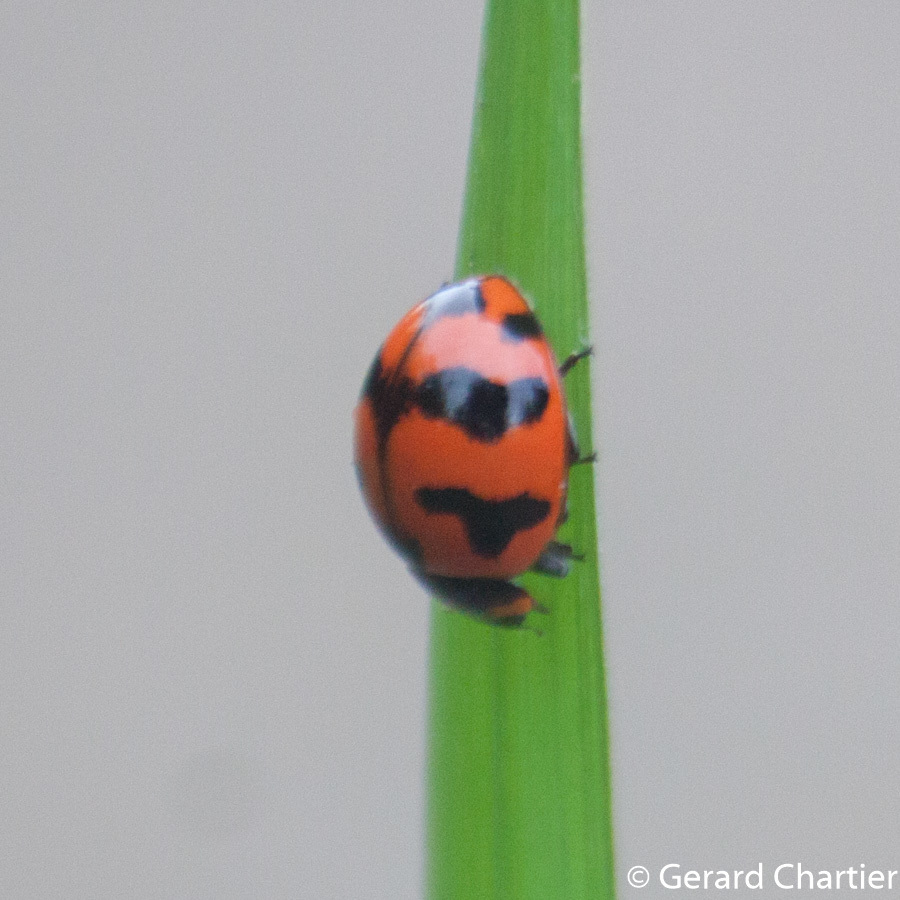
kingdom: Animalia
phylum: Arthropoda
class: Insecta
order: Coleoptera
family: Coccinellidae
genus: Coccinella
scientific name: Coccinella transversalis
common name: Transverse lady beetle
